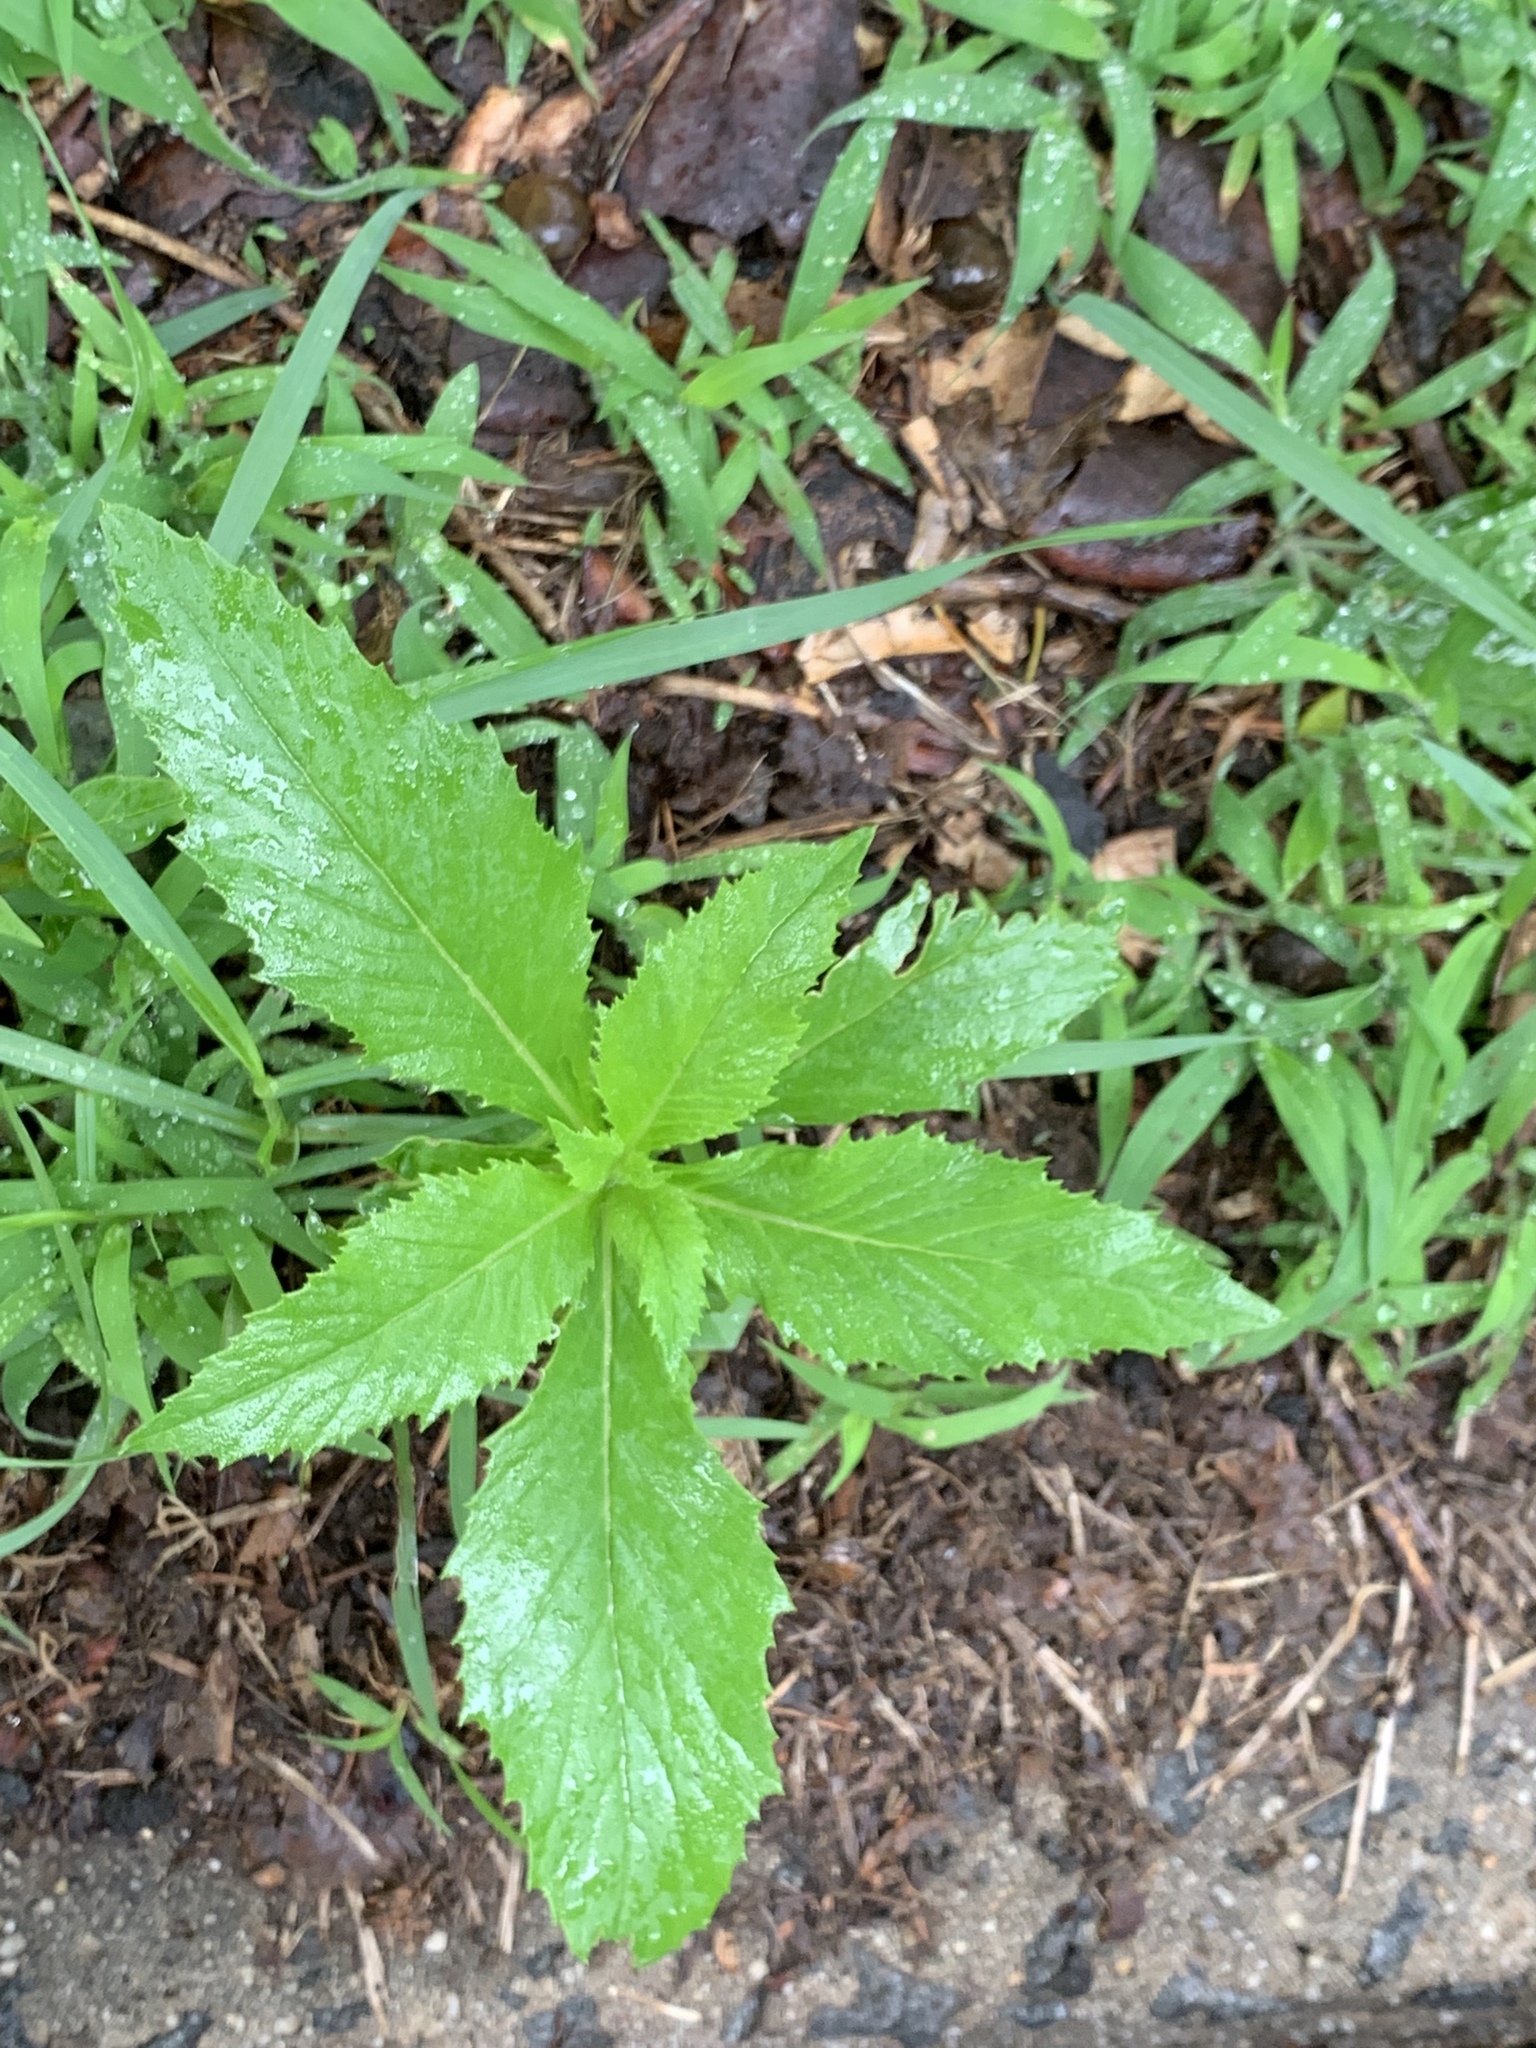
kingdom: Plantae
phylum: Tracheophyta
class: Magnoliopsida
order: Asterales
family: Asteraceae
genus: Erechtites
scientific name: Erechtites hieraciifolius
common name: American burnweed
